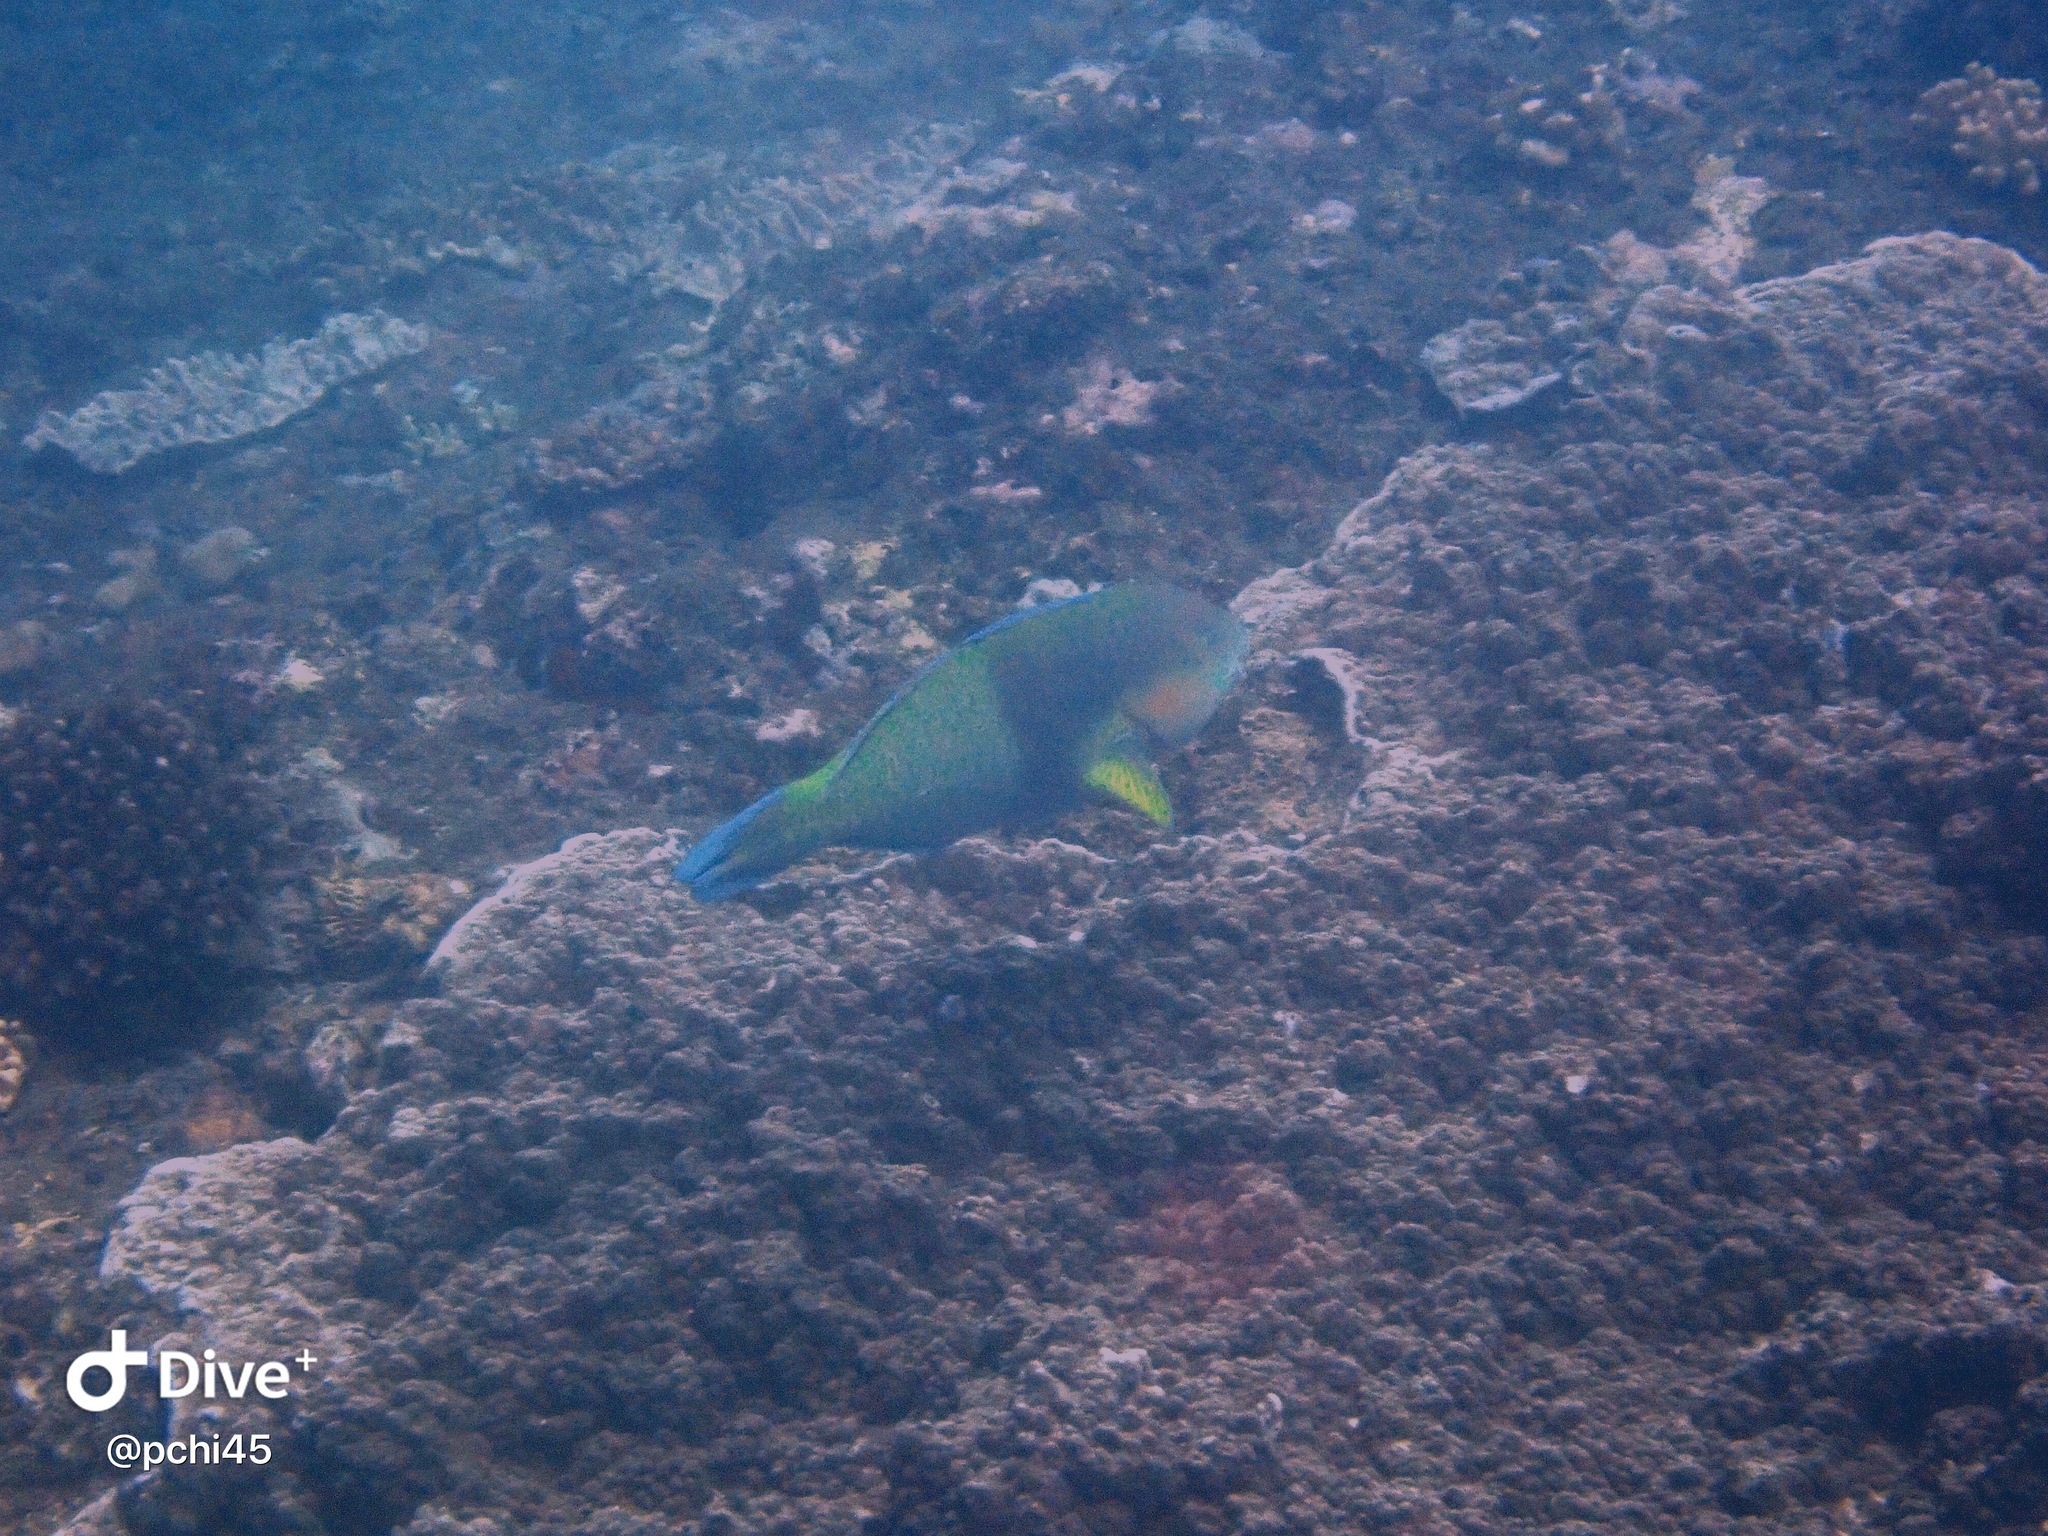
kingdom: Animalia
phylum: Chordata
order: Perciformes
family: Scaridae
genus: Scarus
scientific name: Scarus rivulatus
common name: Surf parrotfish
